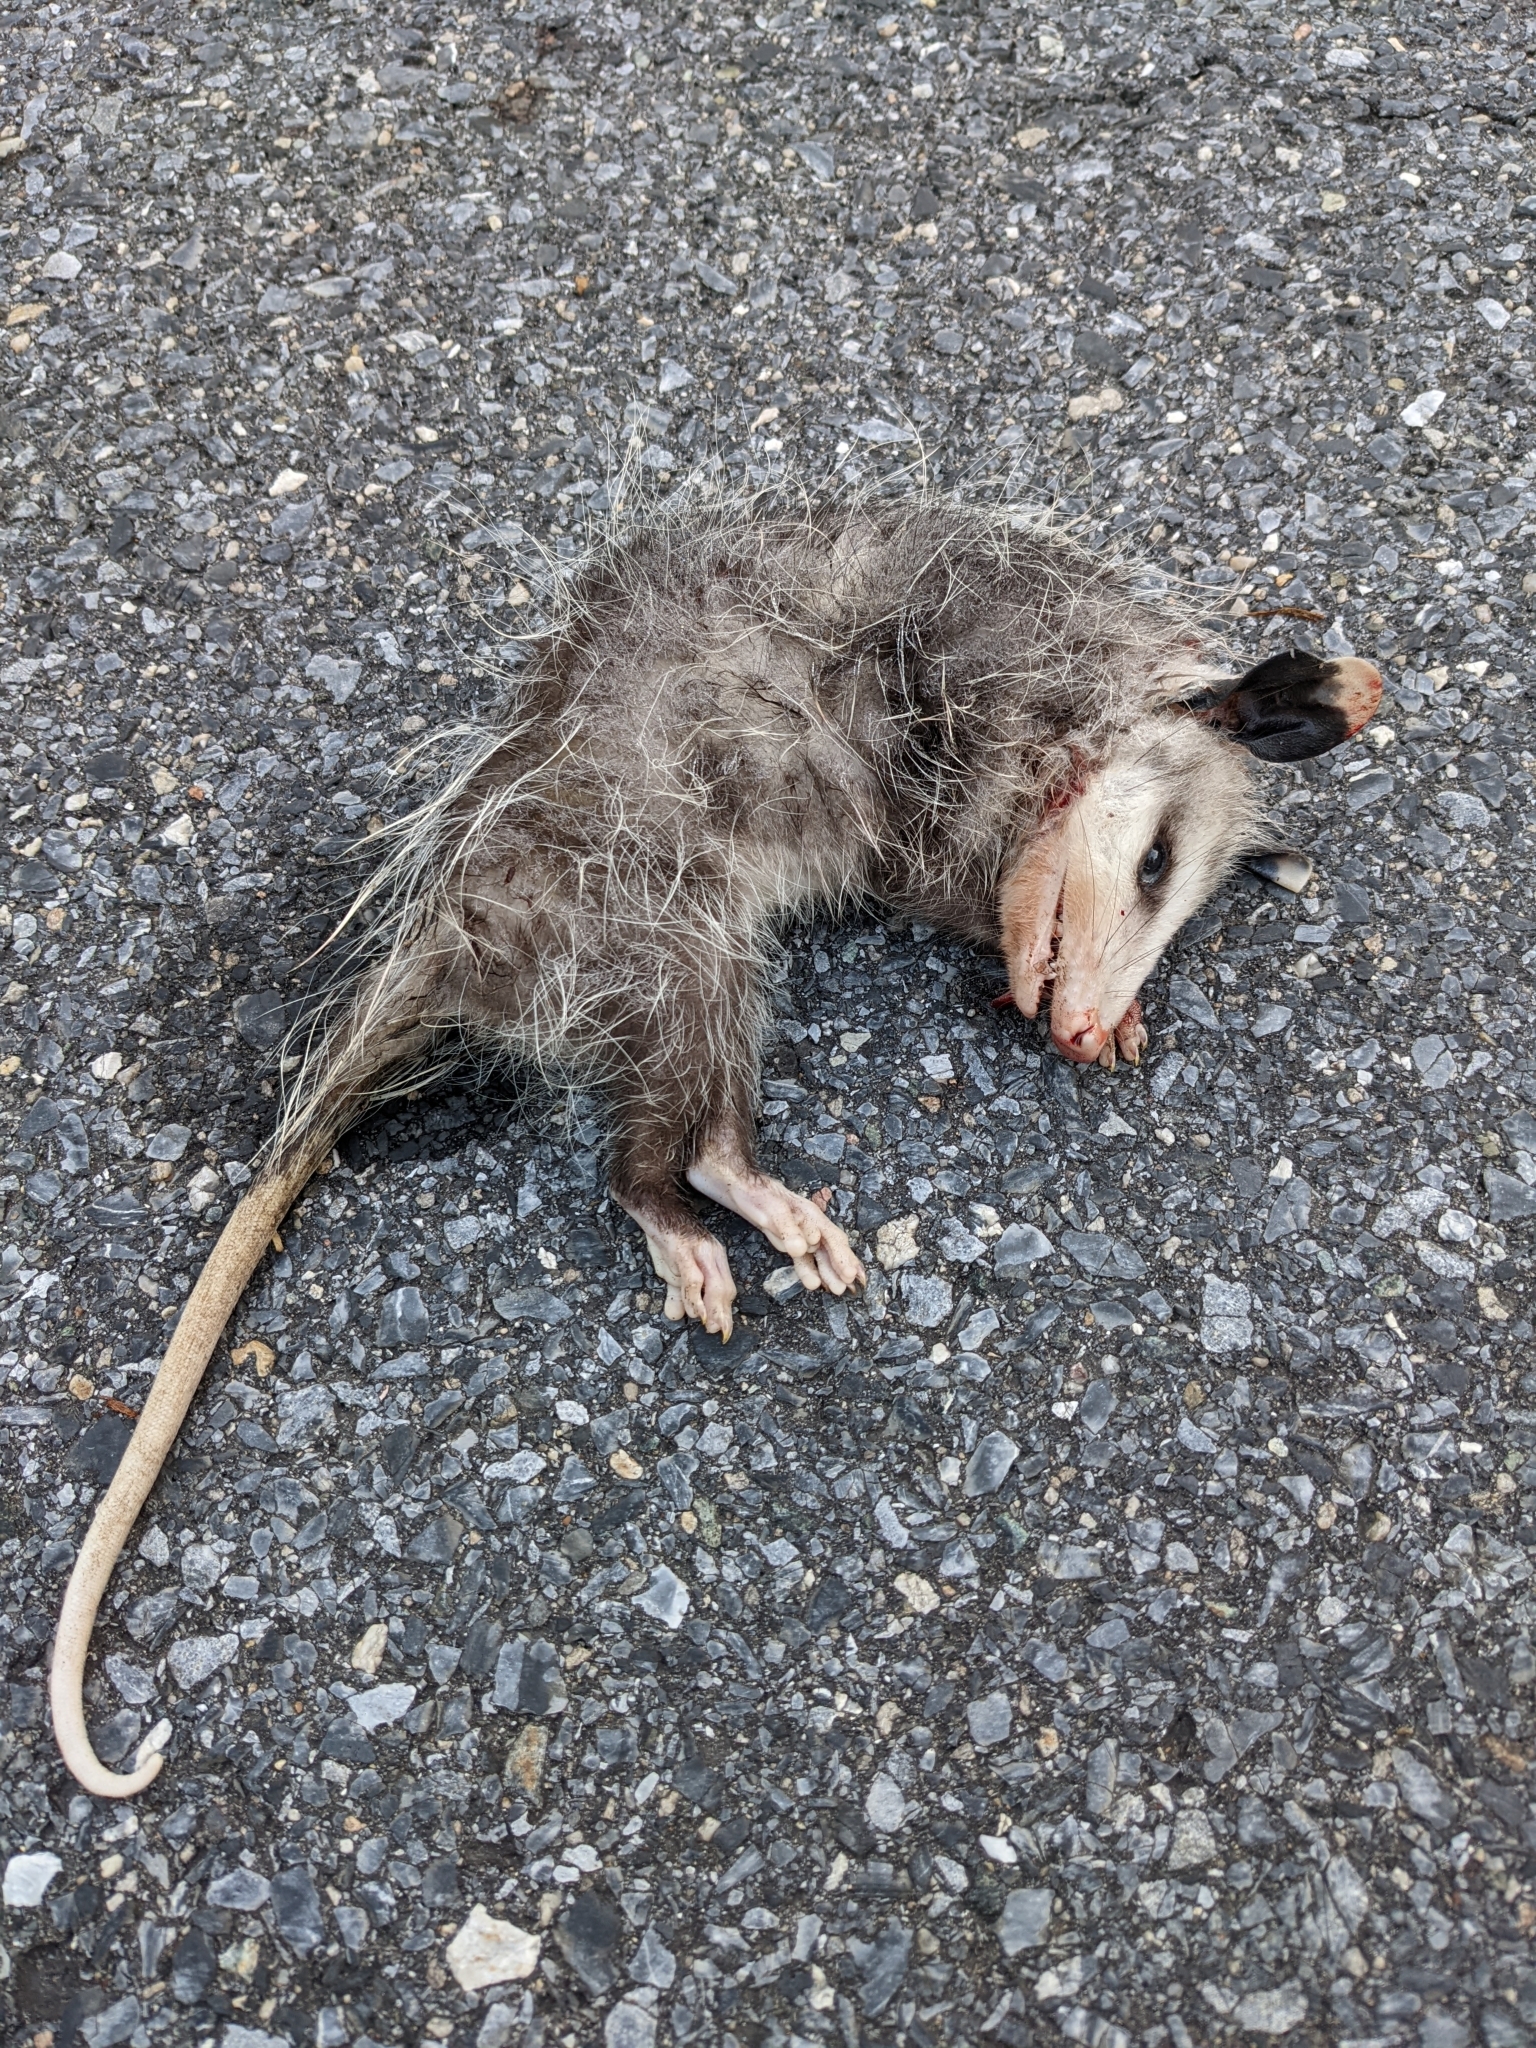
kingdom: Animalia
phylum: Chordata
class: Mammalia
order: Didelphimorphia
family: Didelphidae
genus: Didelphis
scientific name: Didelphis virginiana
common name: Virginia opossum
